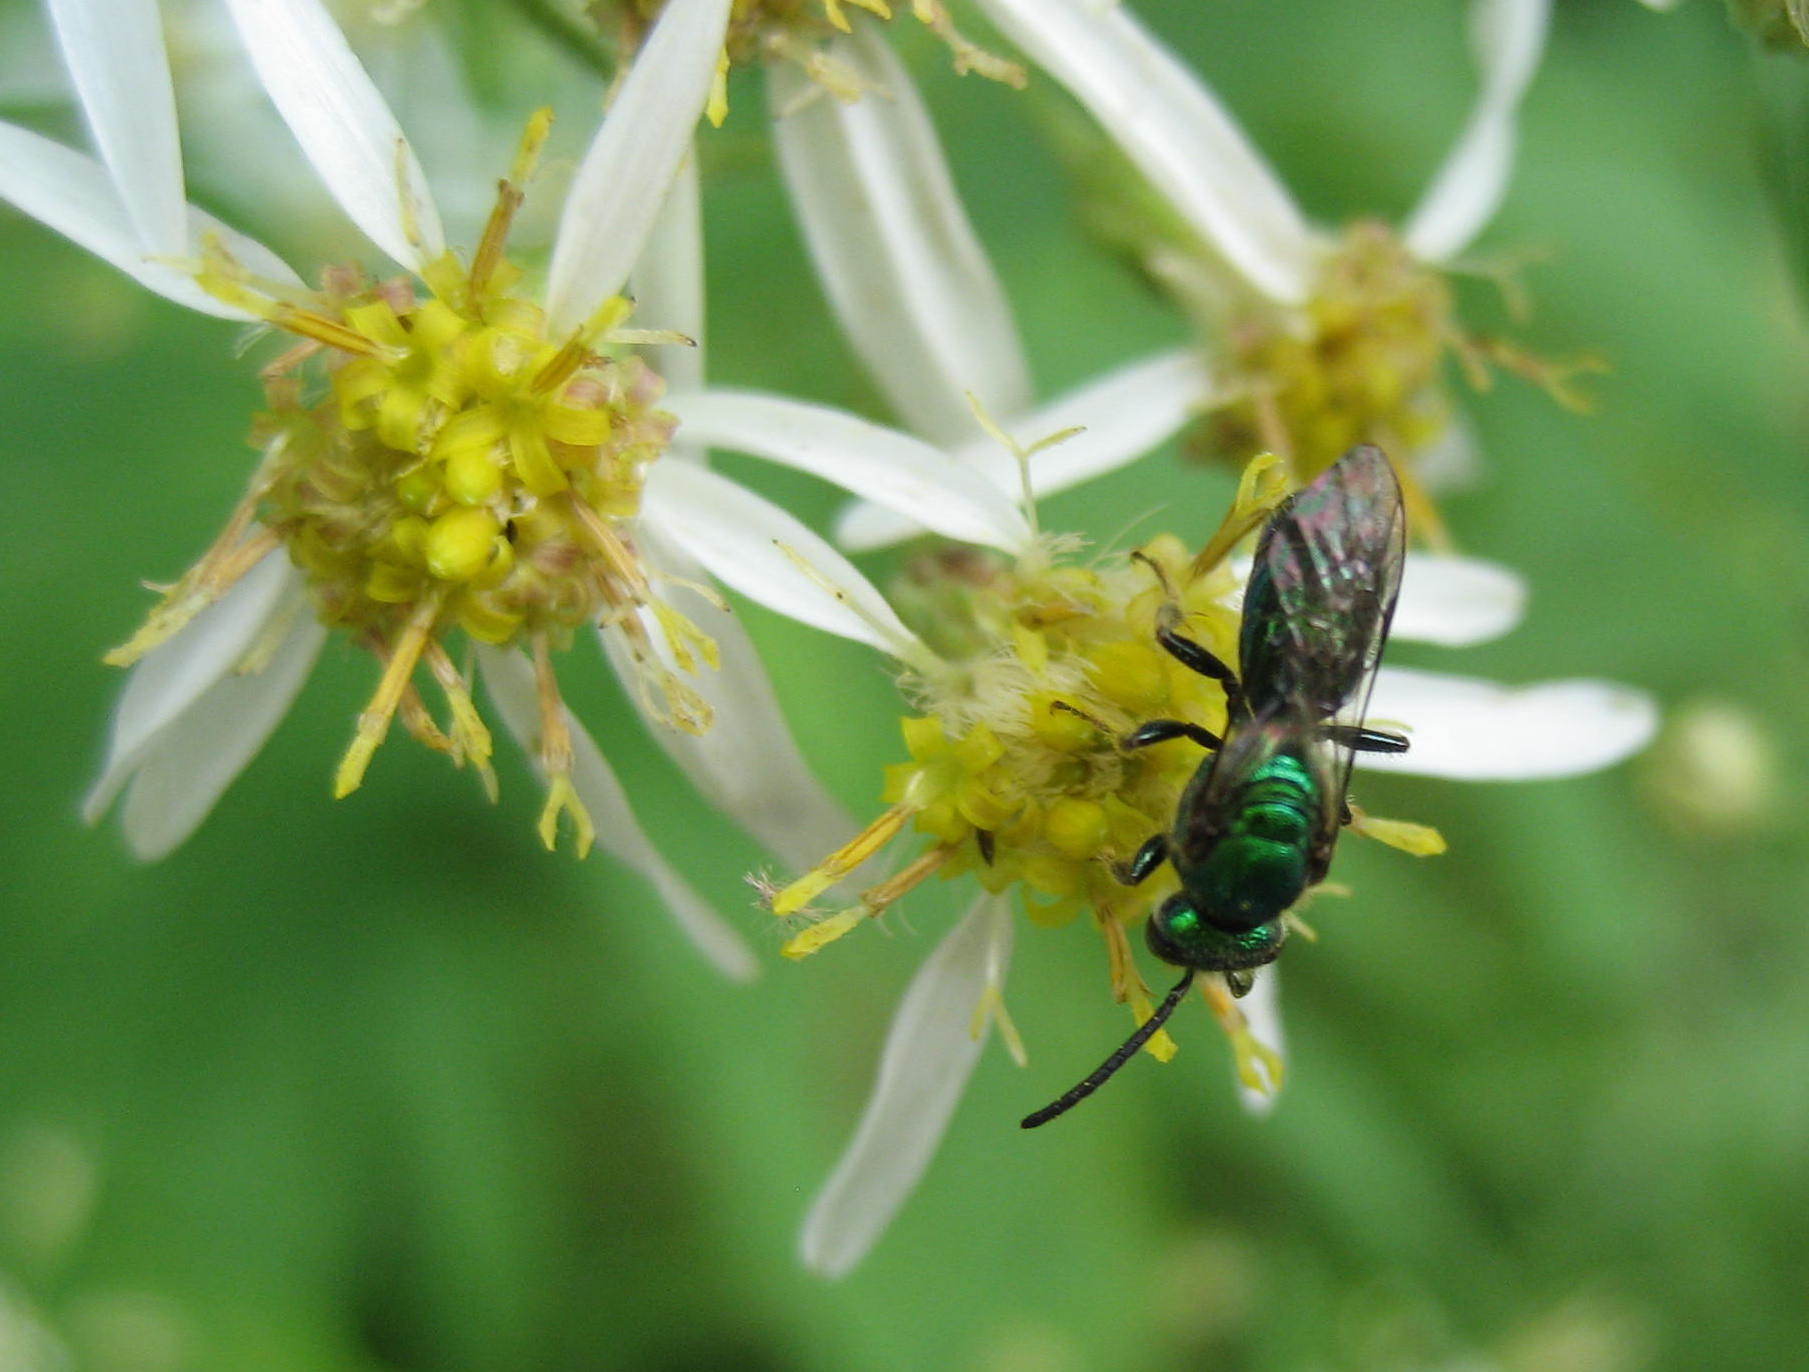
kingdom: Plantae
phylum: Tracheophyta
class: Magnoliopsida
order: Asterales
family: Asteraceae
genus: Doellingeria
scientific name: Doellingeria umbellata
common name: Flat-top white aster
